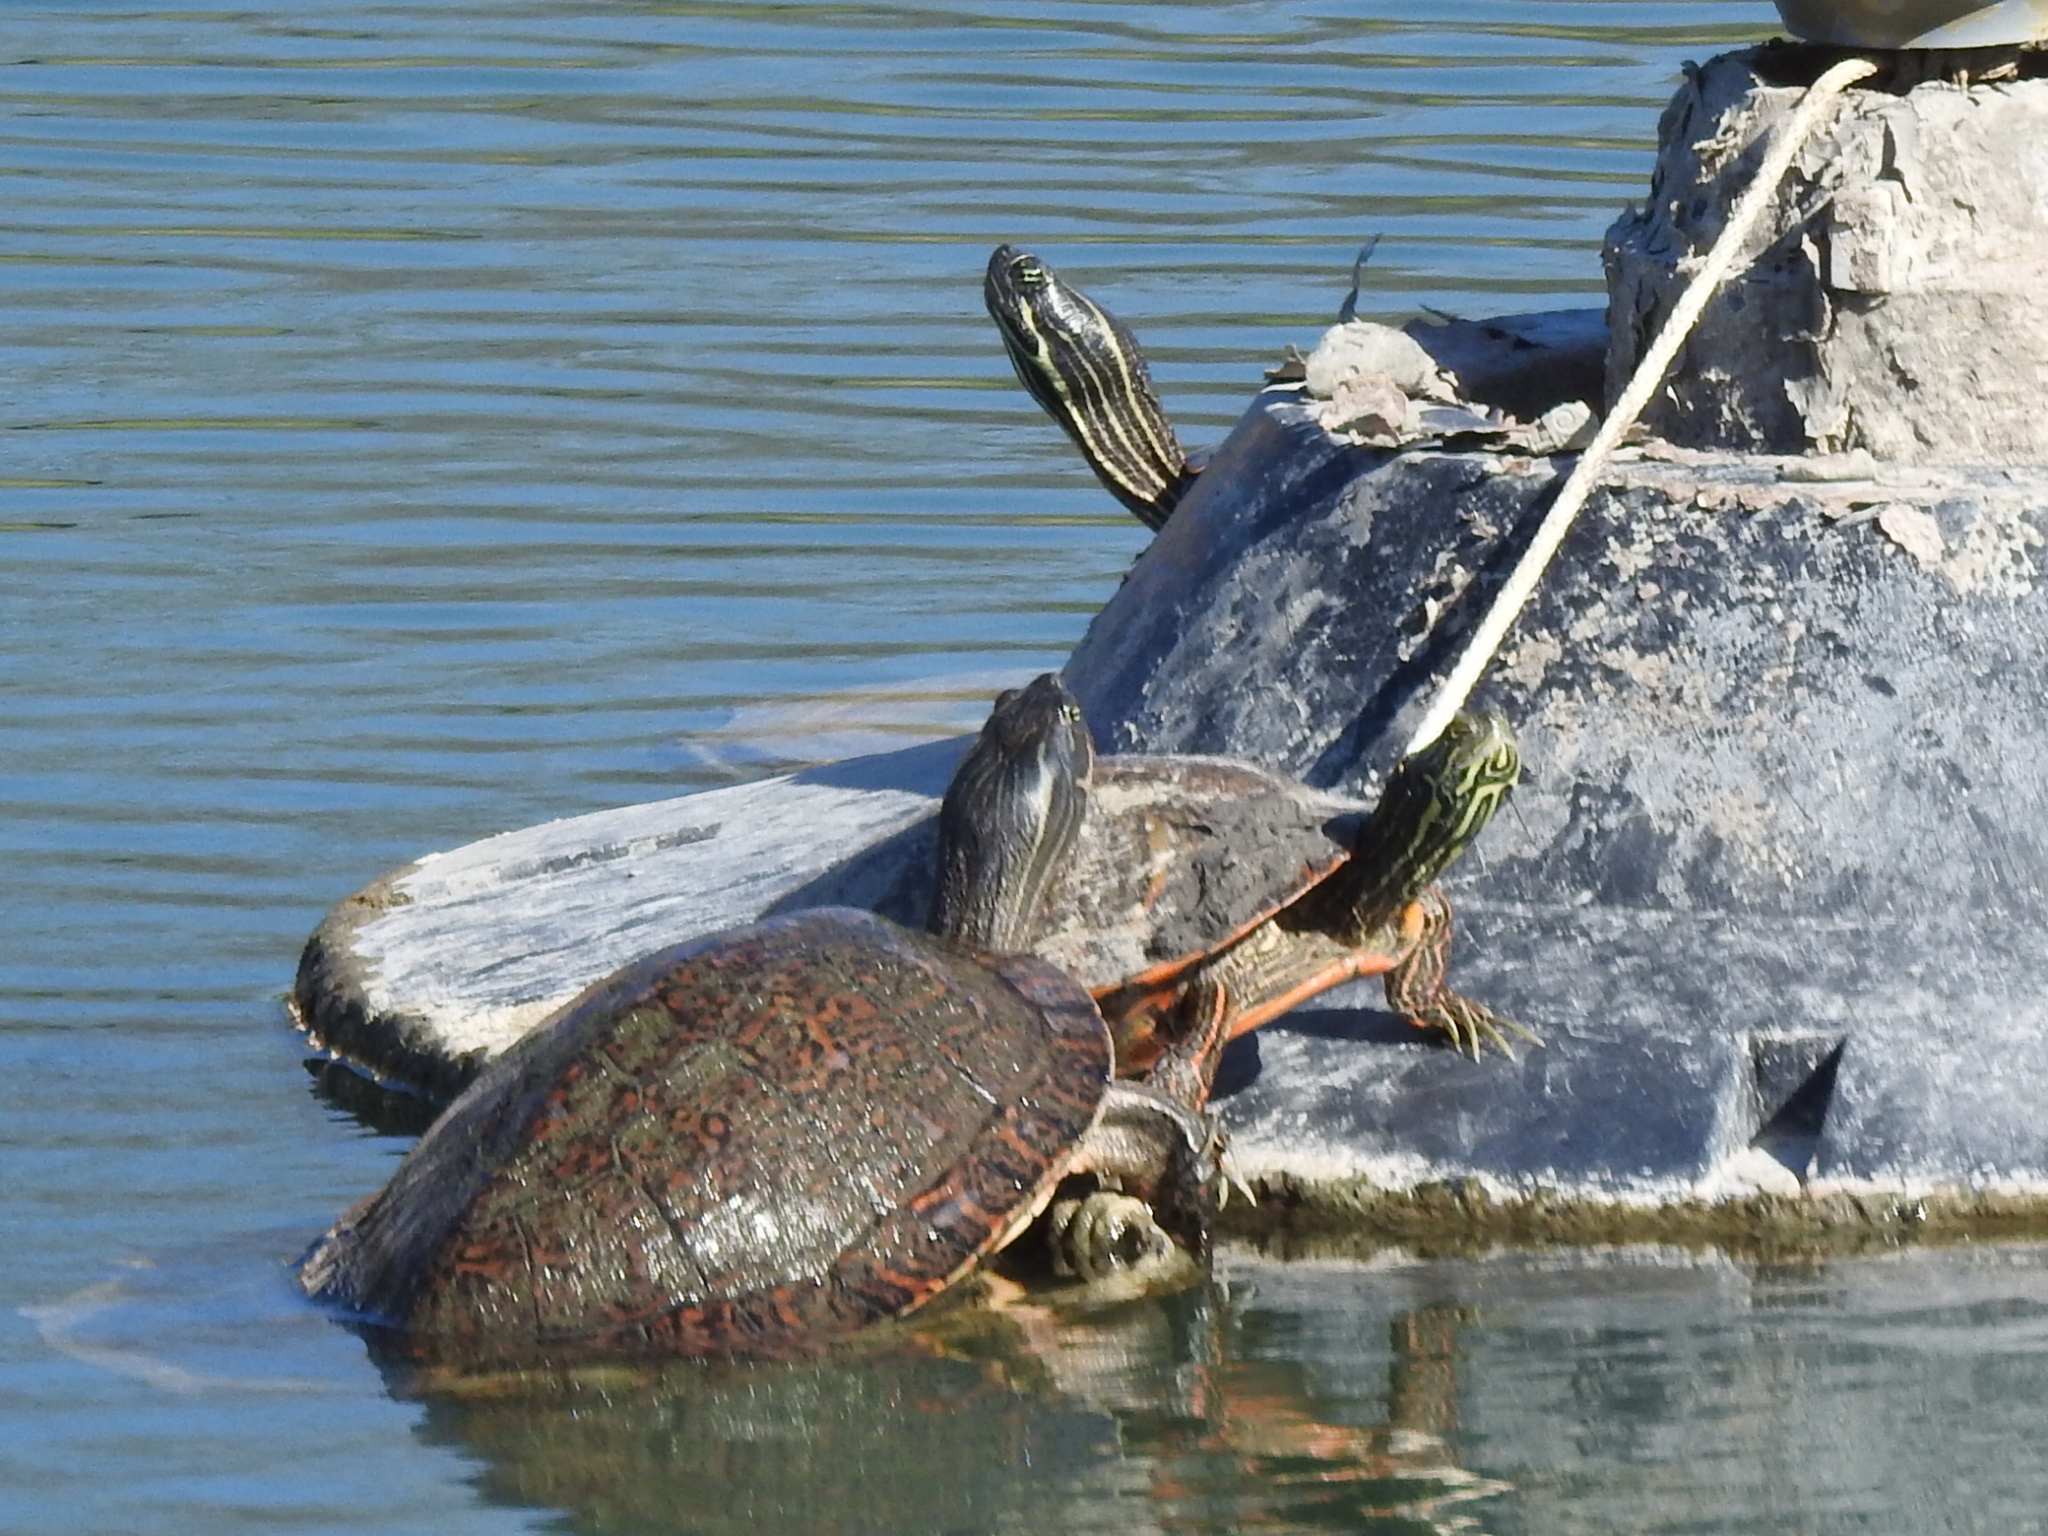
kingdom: Animalia
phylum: Chordata
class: Testudines
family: Emydidae
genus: Pseudemys
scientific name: Pseudemys concinna
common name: Eastern river cooter
